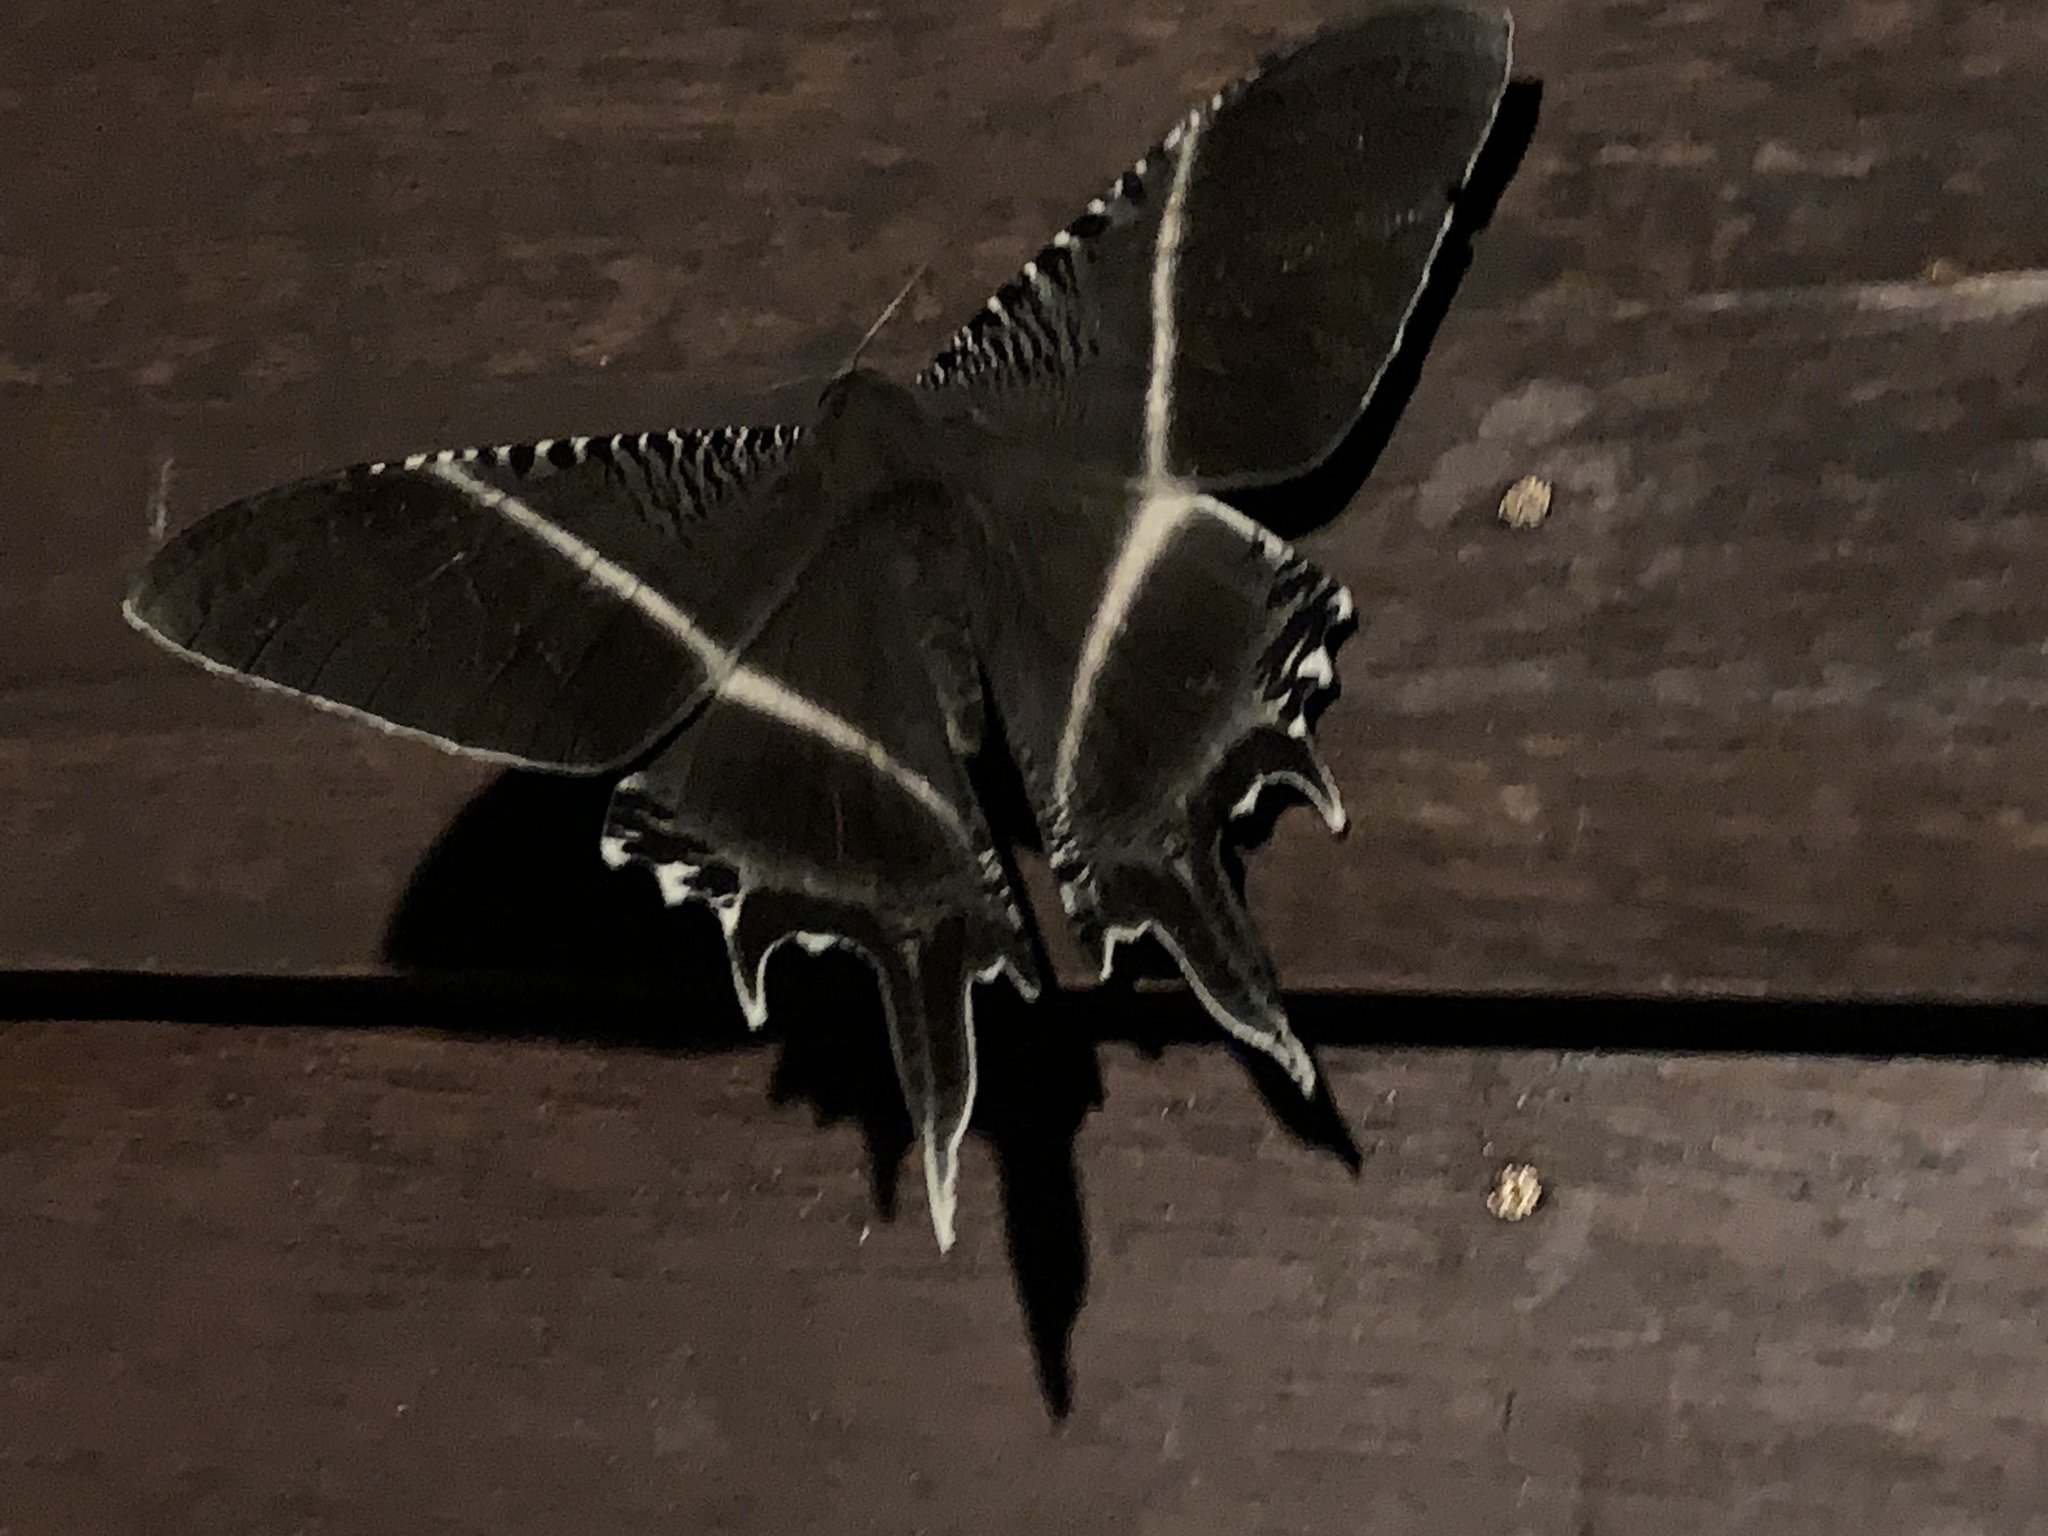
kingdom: Animalia
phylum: Arthropoda
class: Insecta
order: Lepidoptera
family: Uraniidae
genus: Lyssa
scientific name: Lyssa menoetius
